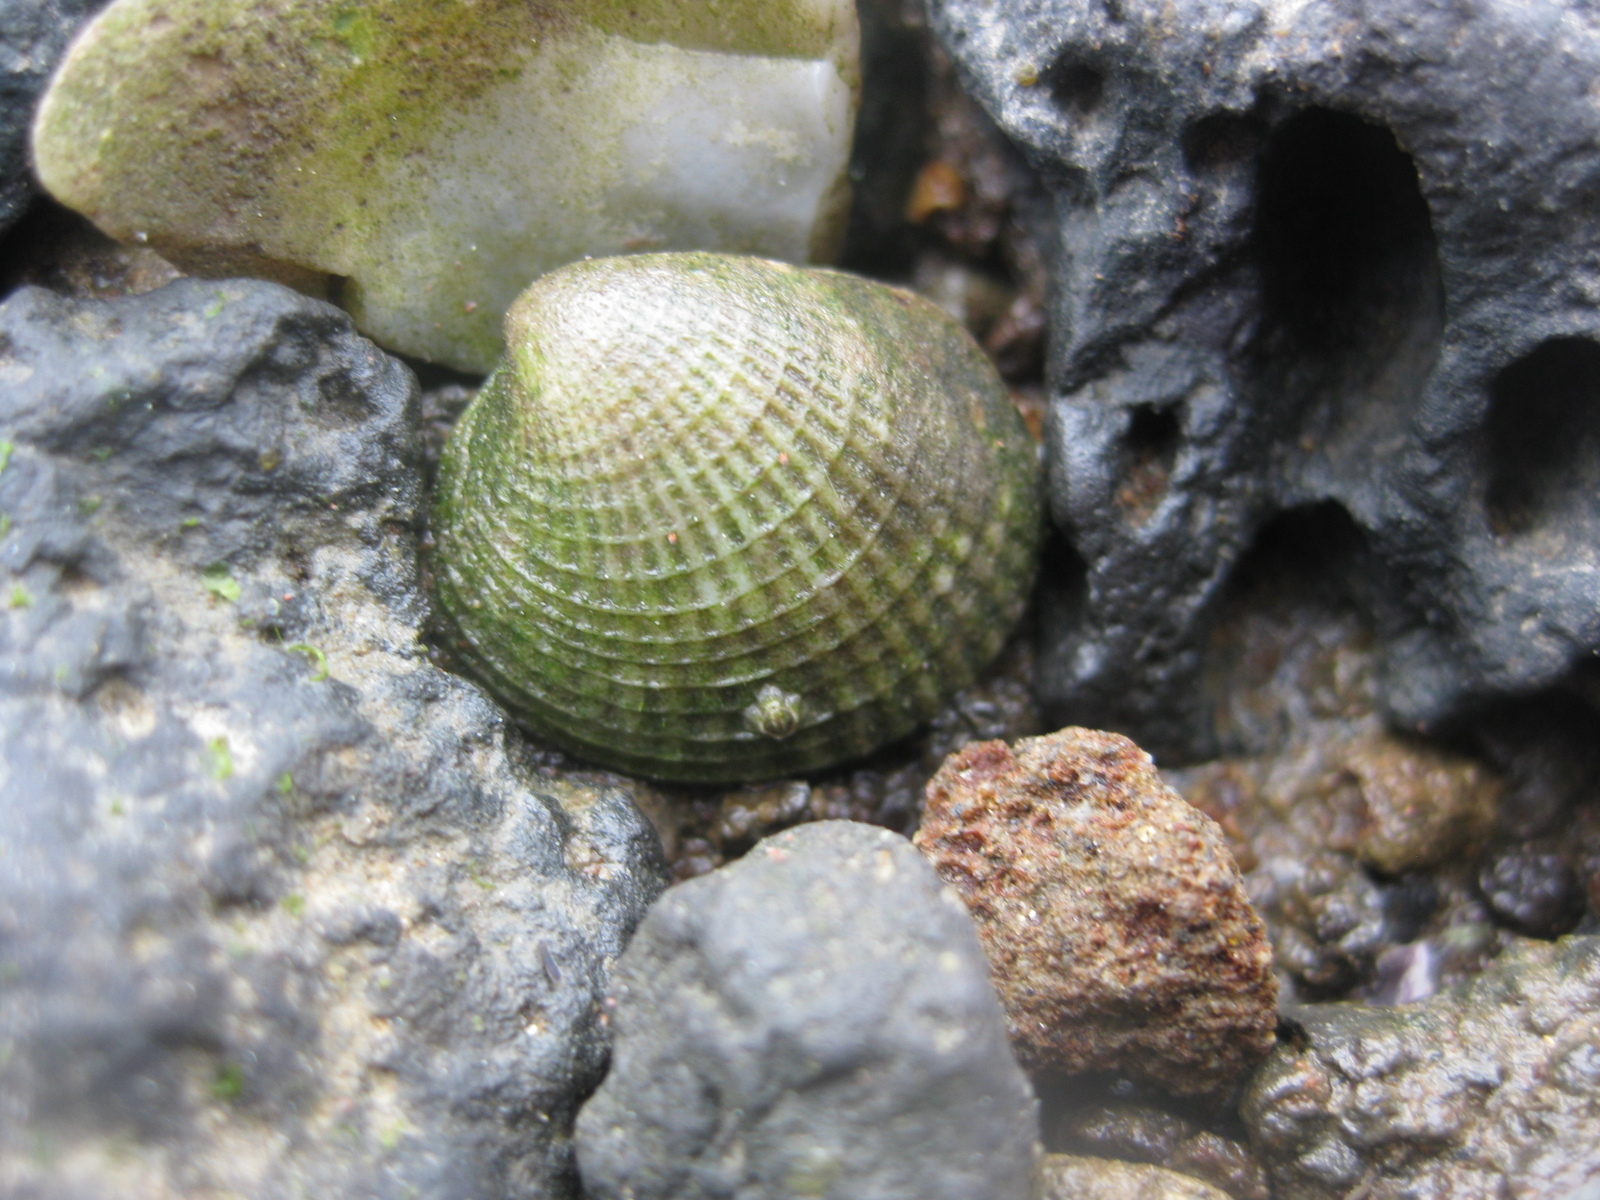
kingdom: Animalia
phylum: Mollusca
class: Bivalvia
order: Venerida
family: Veneridae
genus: Austrovenus
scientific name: Austrovenus stutchburyi
